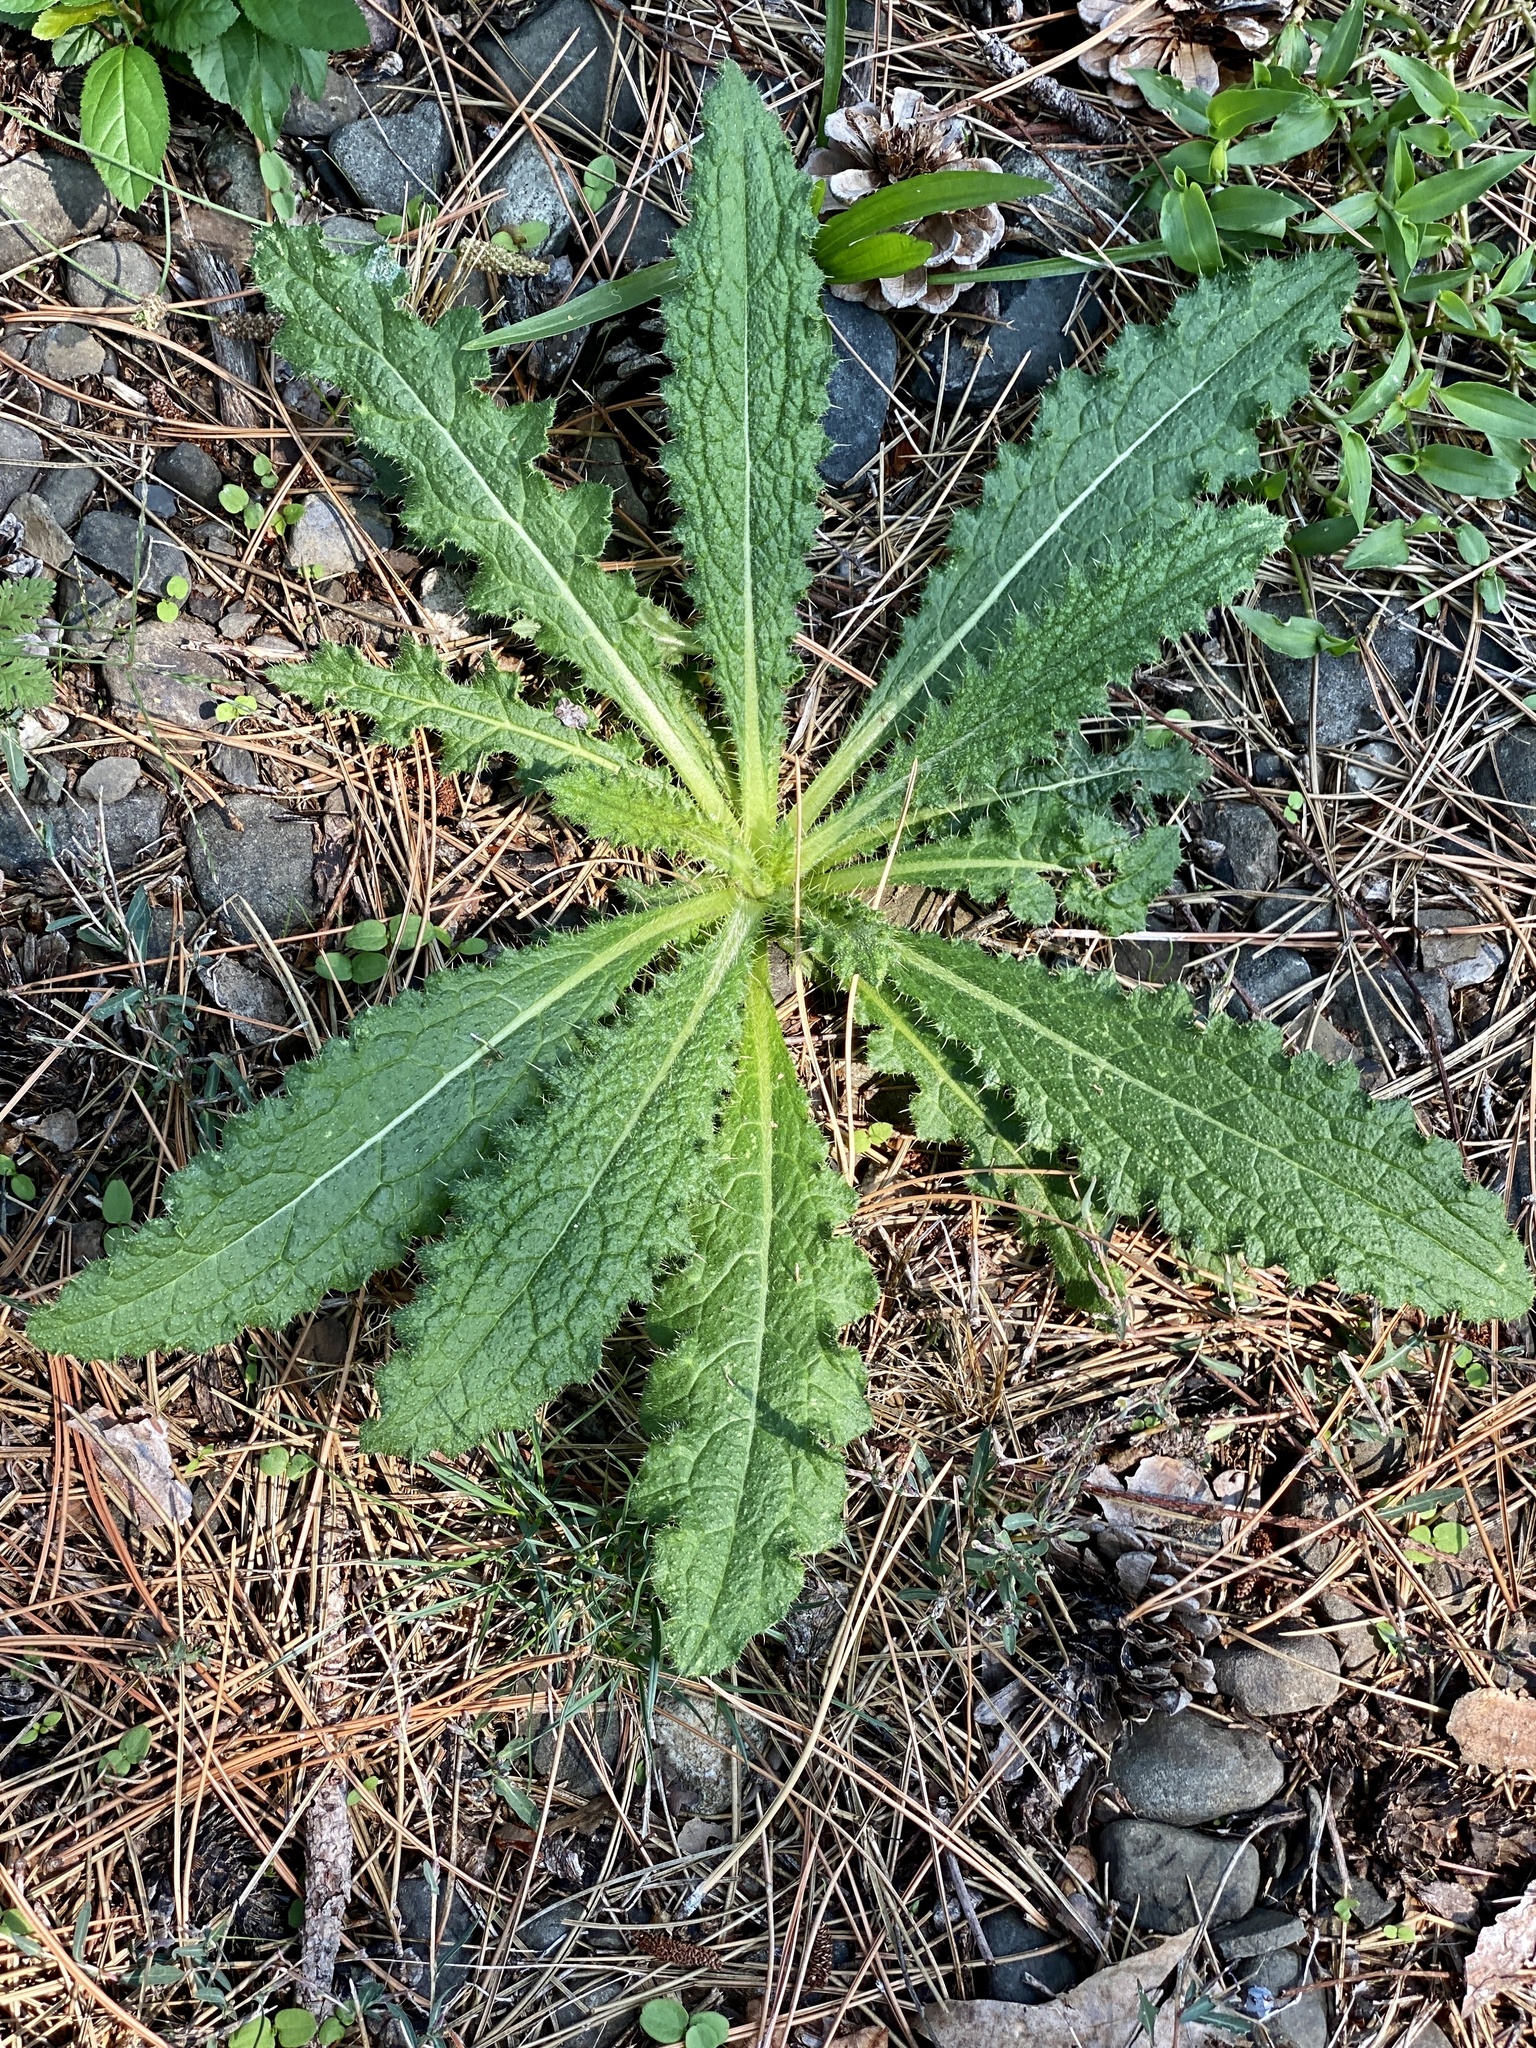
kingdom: Plantae
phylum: Tracheophyta
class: Magnoliopsida
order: Asterales
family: Asteraceae
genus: Cirsium
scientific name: Cirsium vulgare
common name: Bull thistle
